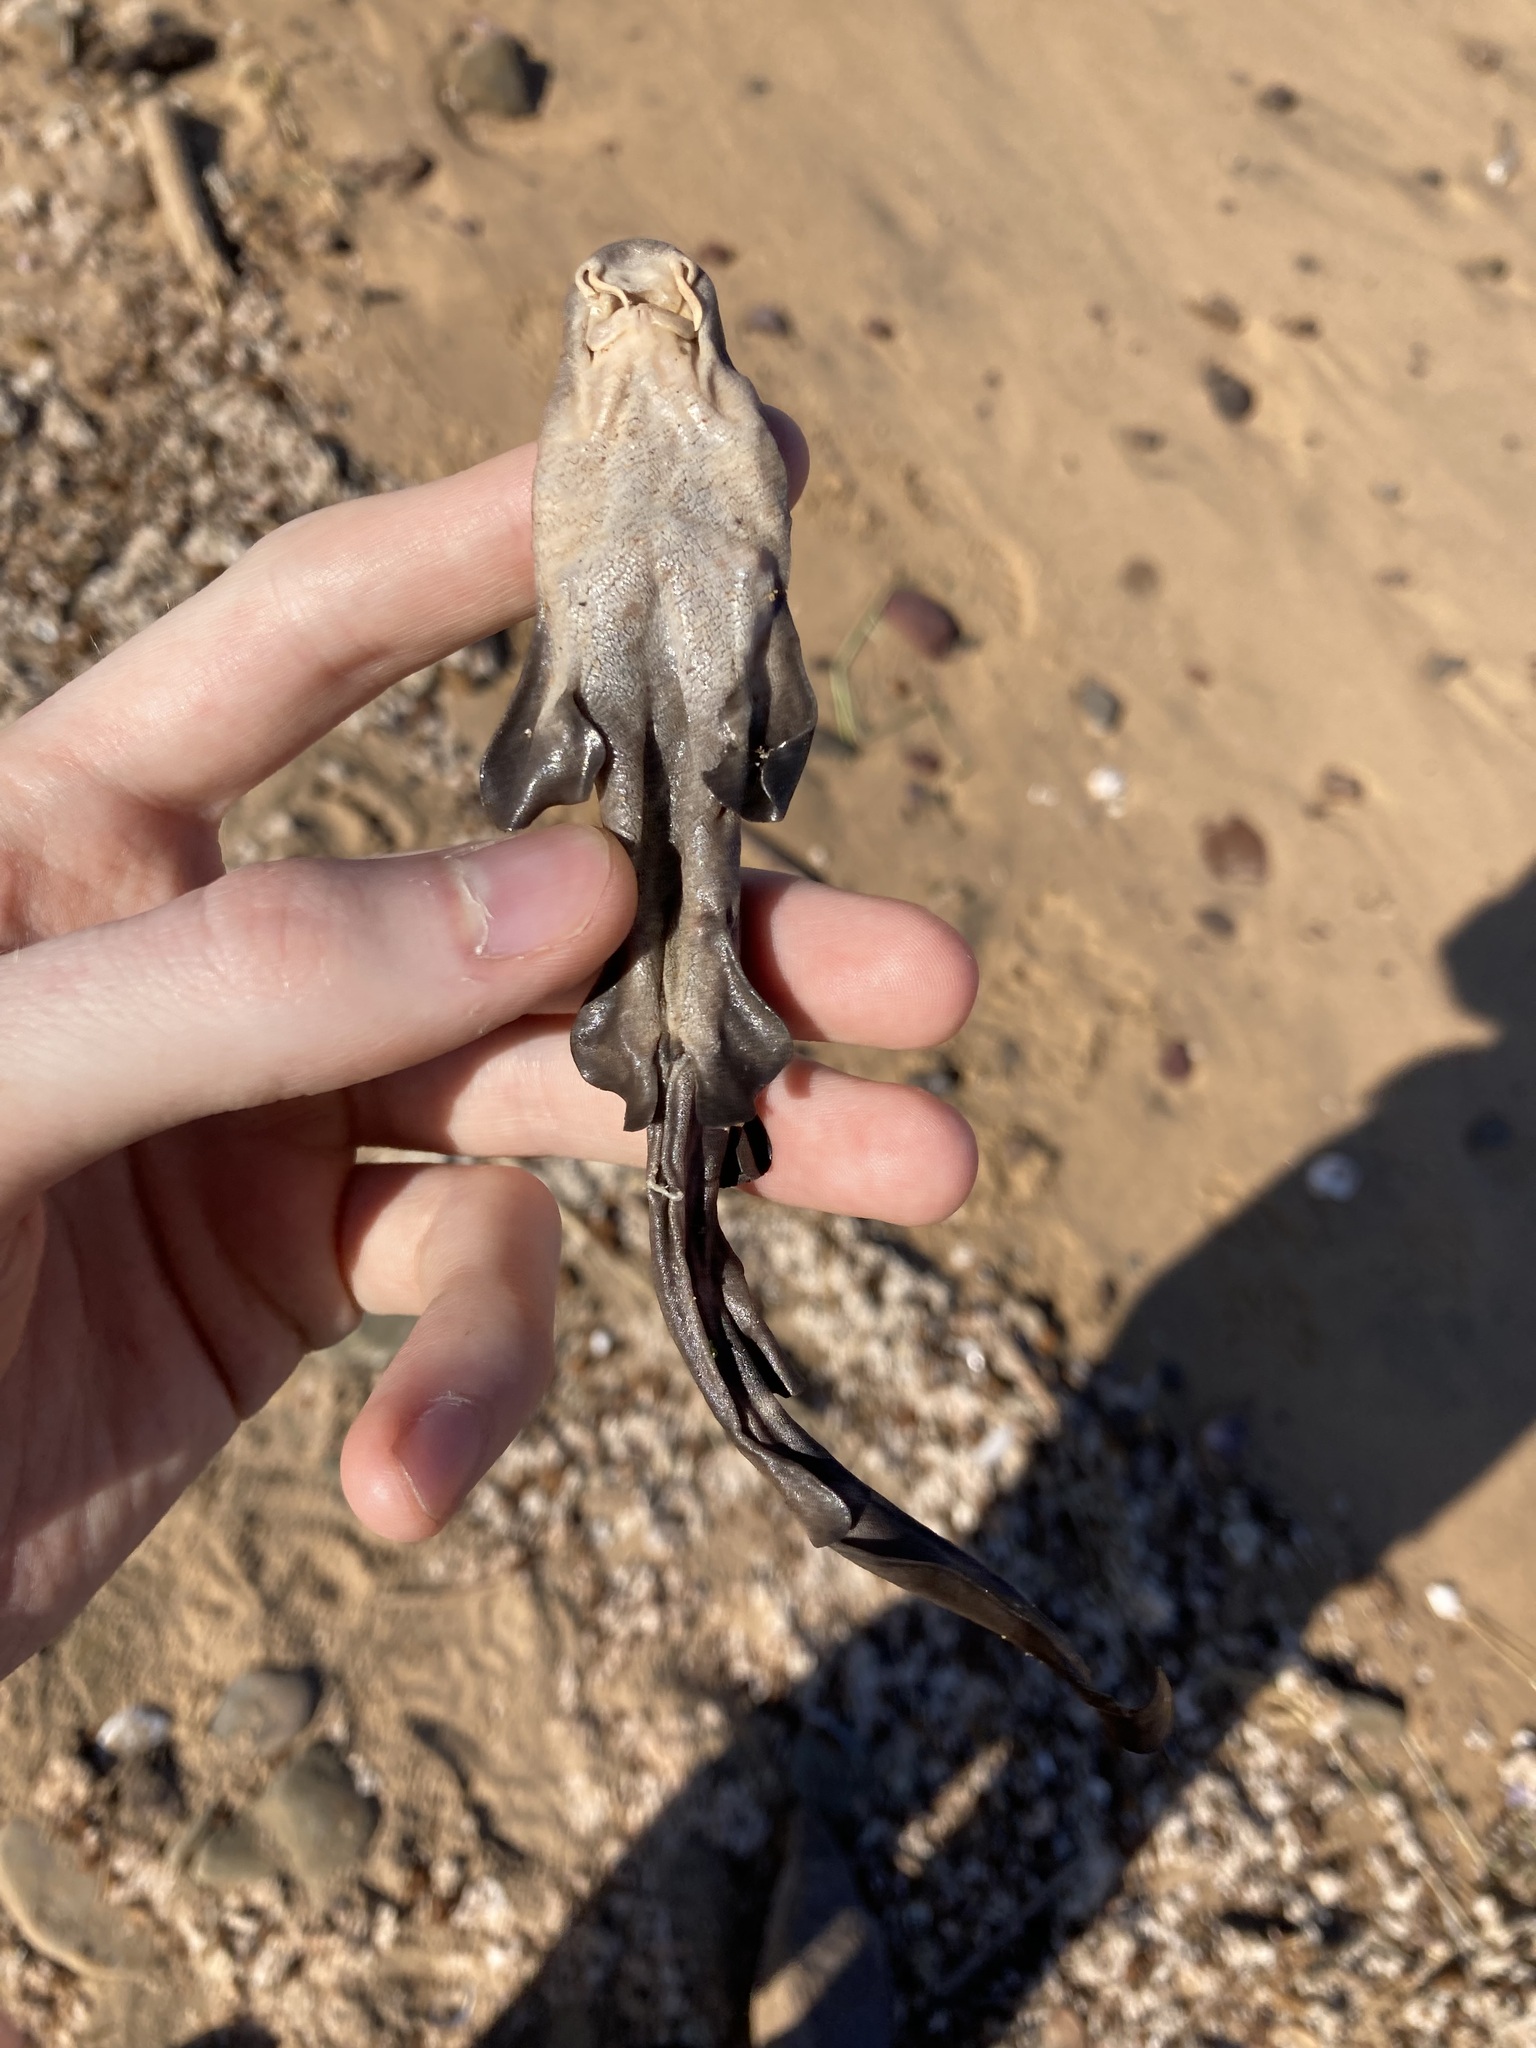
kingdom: Animalia
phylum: Chordata
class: Elasmobranchii
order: Orectolobiformes
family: Brachaeluridae
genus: Brachaelurus
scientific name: Brachaelurus waddi
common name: Blind shark
